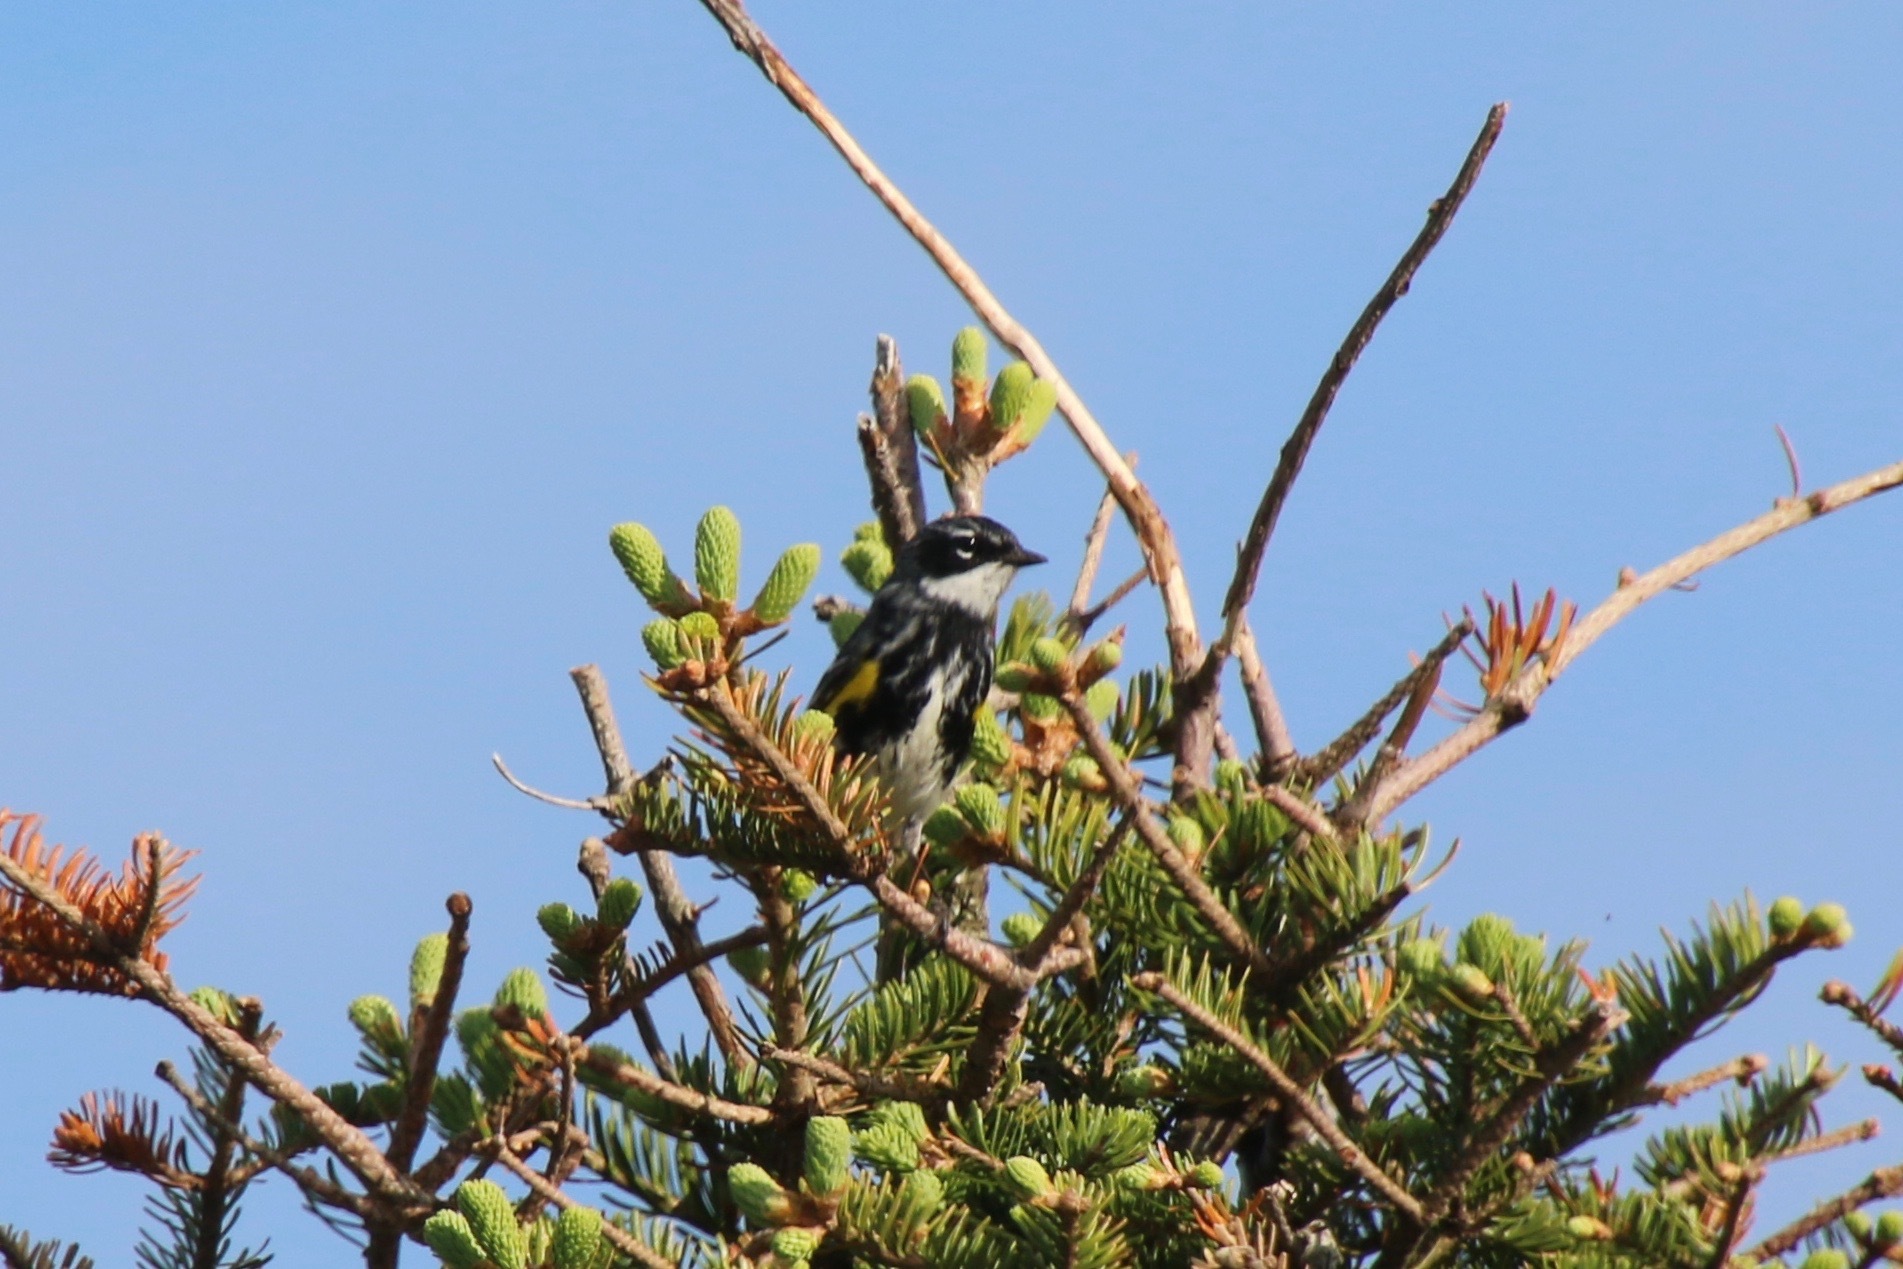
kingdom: Animalia
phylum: Chordata
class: Aves
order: Passeriformes
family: Parulidae
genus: Setophaga
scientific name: Setophaga coronata
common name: Myrtle warbler
